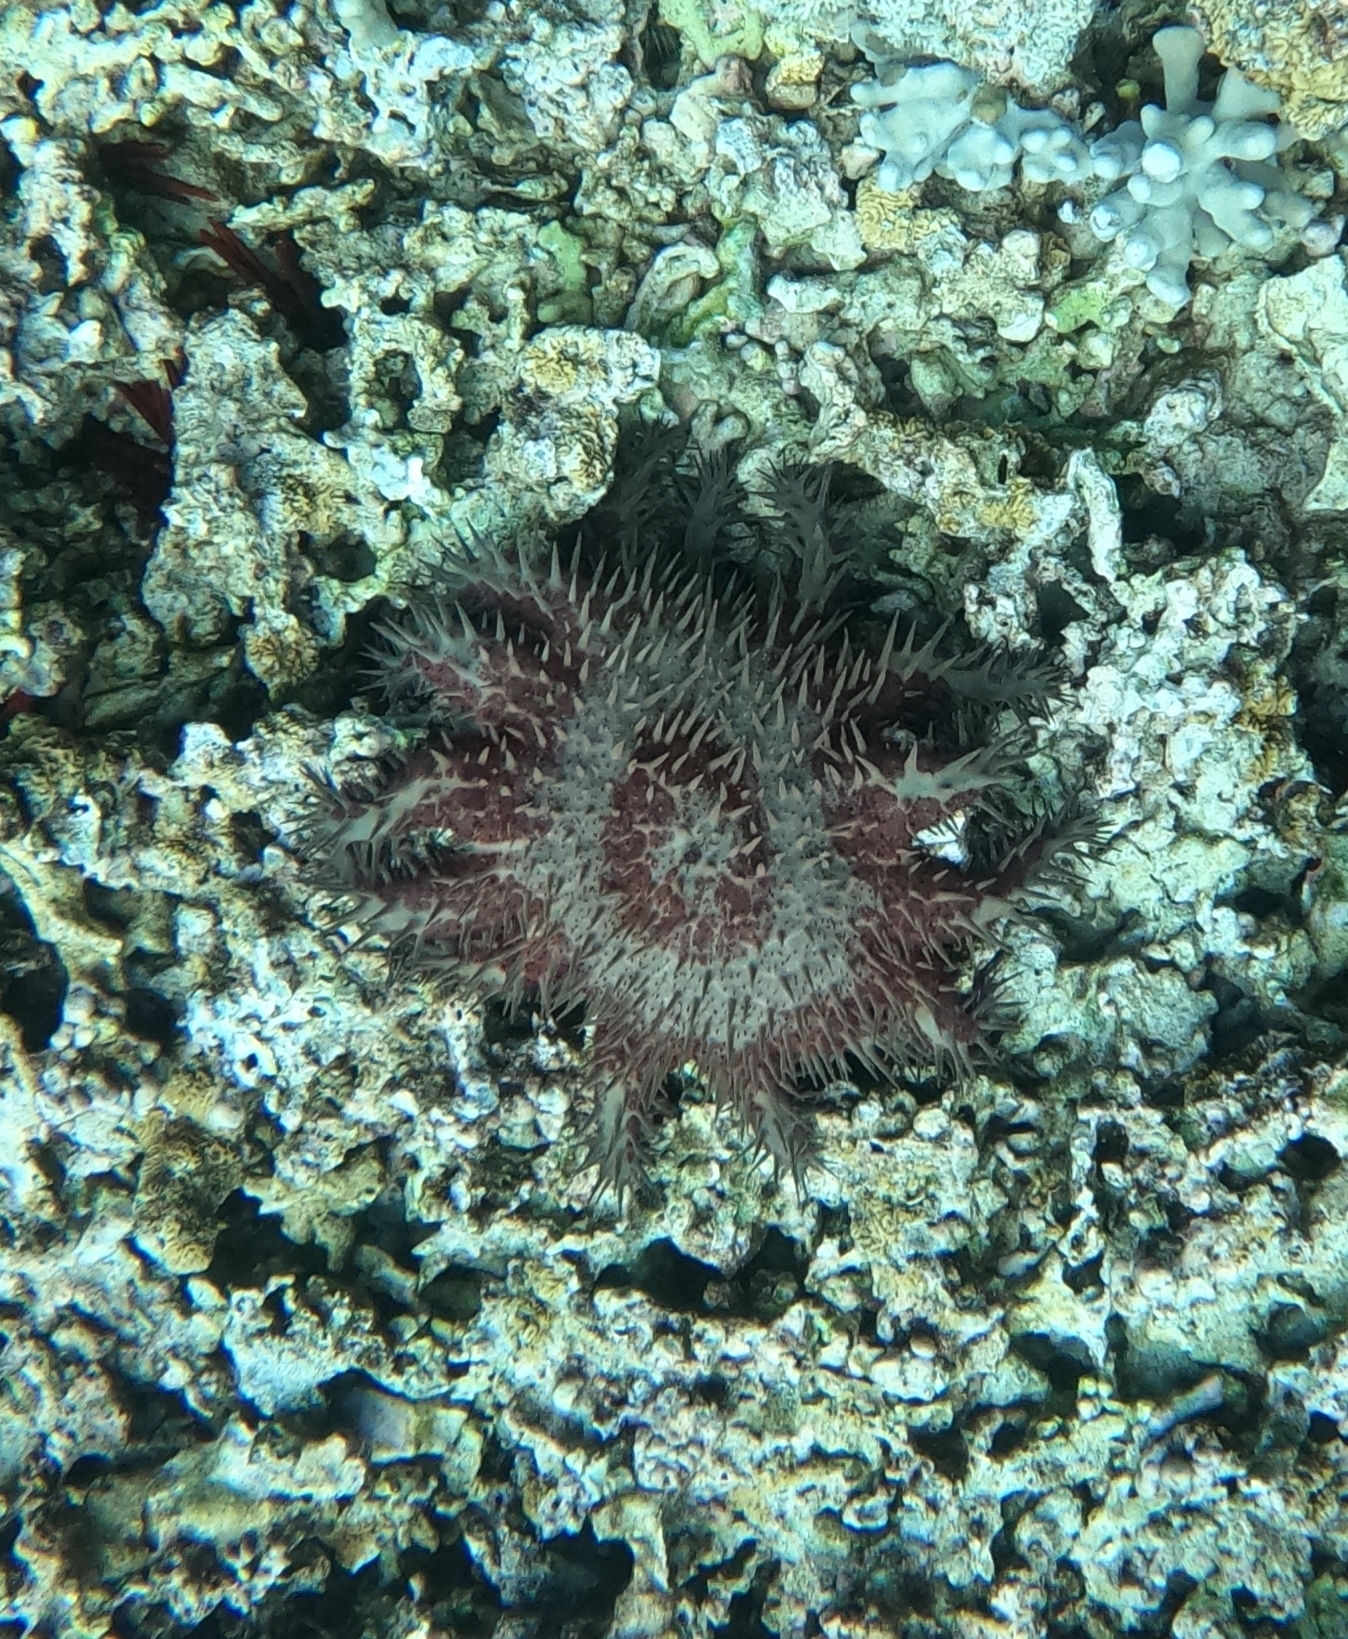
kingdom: Animalia
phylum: Echinodermata
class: Asteroidea
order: Valvatida
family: Acanthasteridae
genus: Acanthaster
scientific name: Acanthaster planci
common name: Crown-of-thorns
